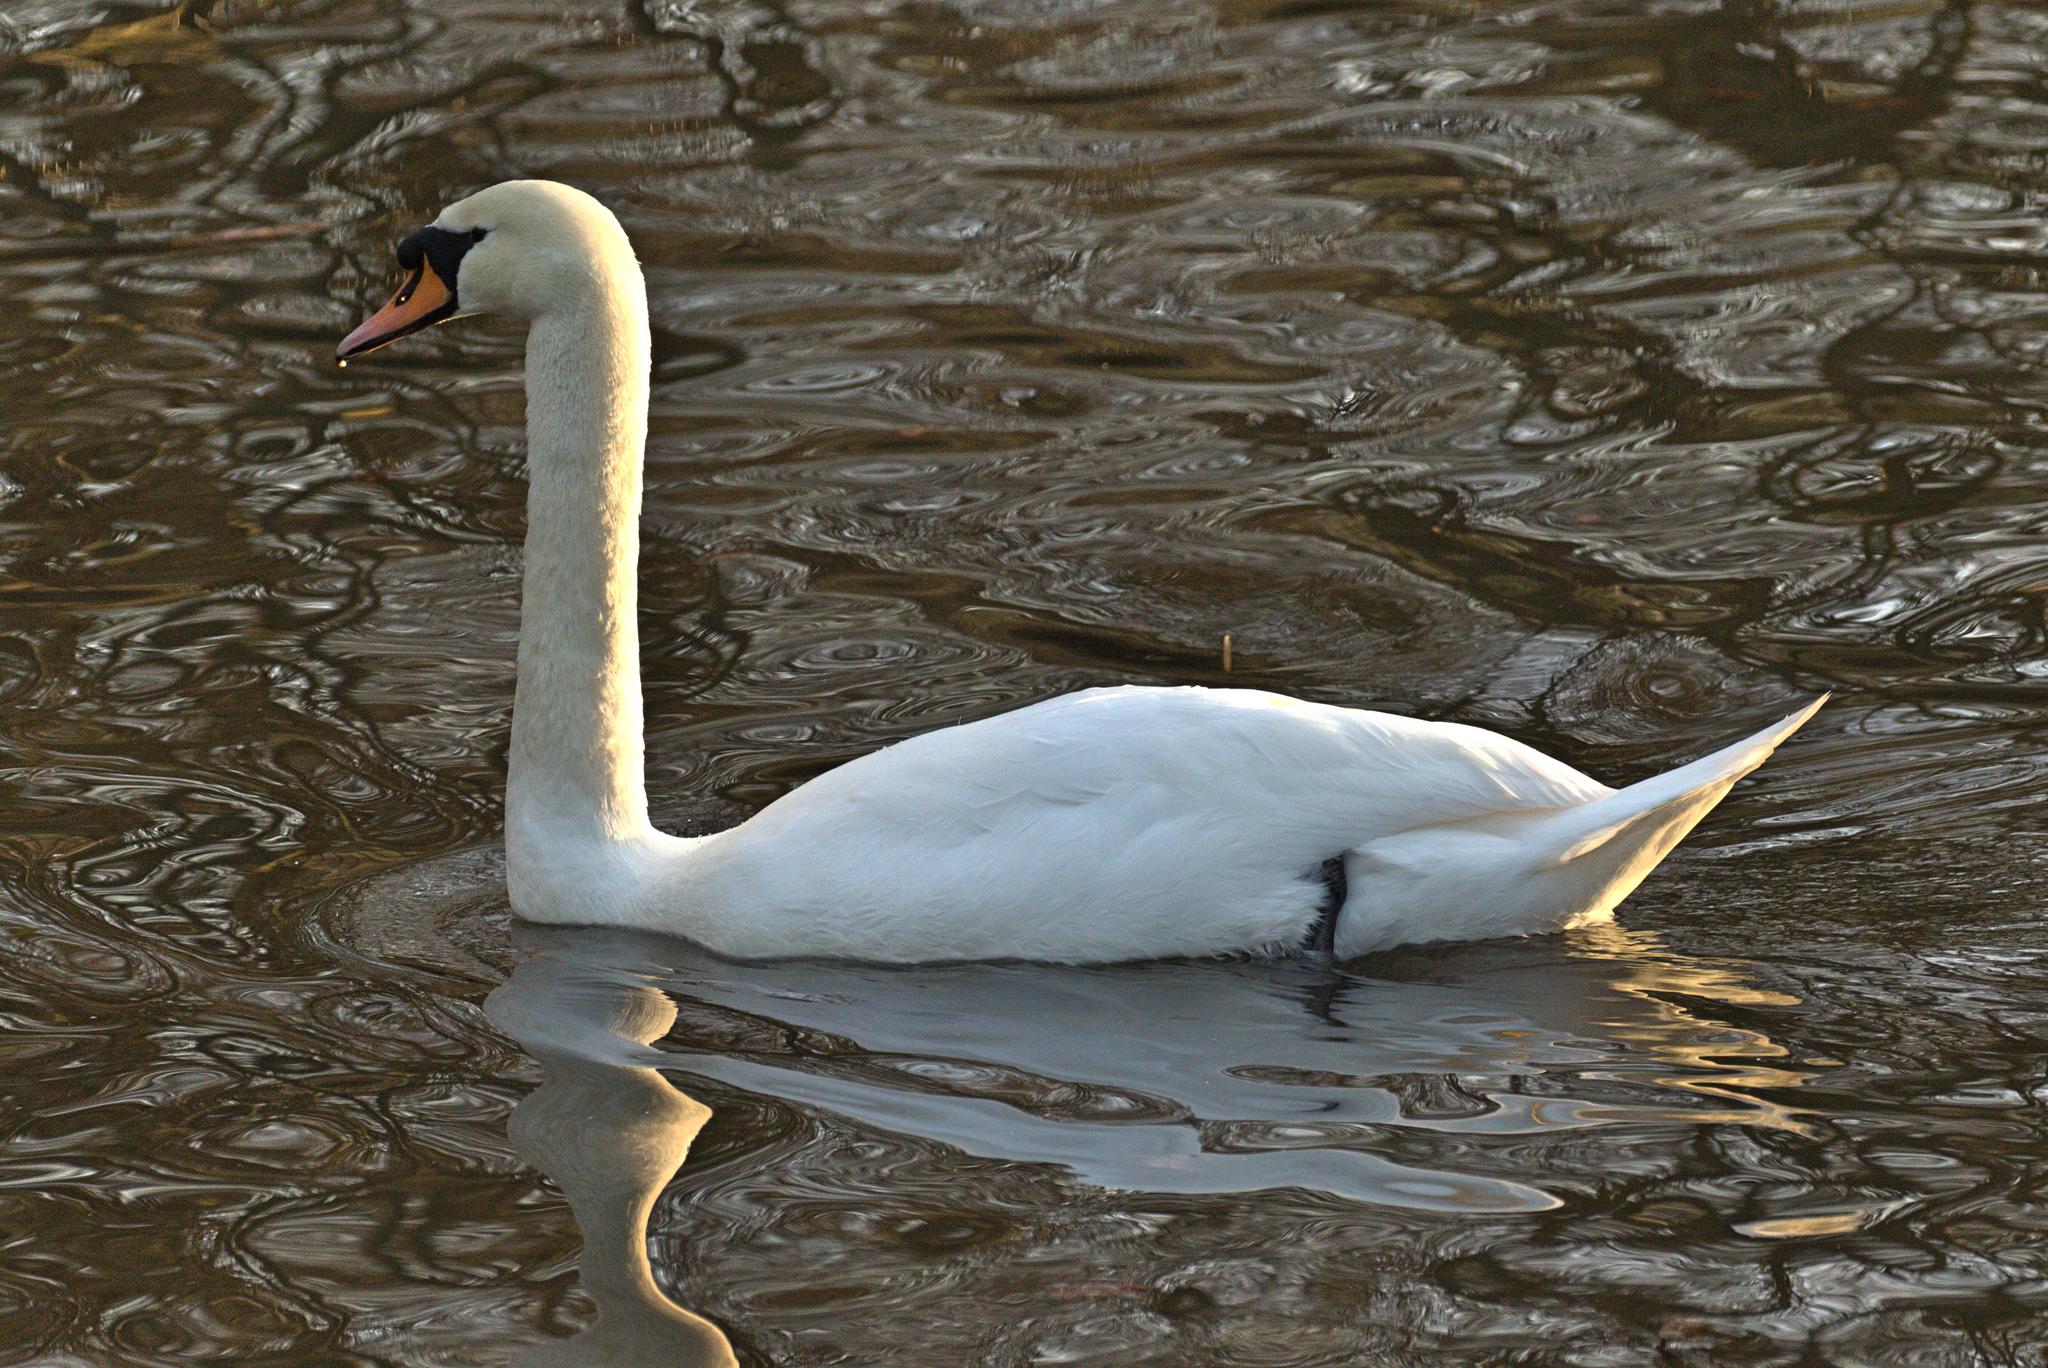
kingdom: Animalia
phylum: Chordata
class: Aves
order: Anseriformes
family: Anatidae
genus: Cygnus
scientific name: Cygnus olor
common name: Mute swan
